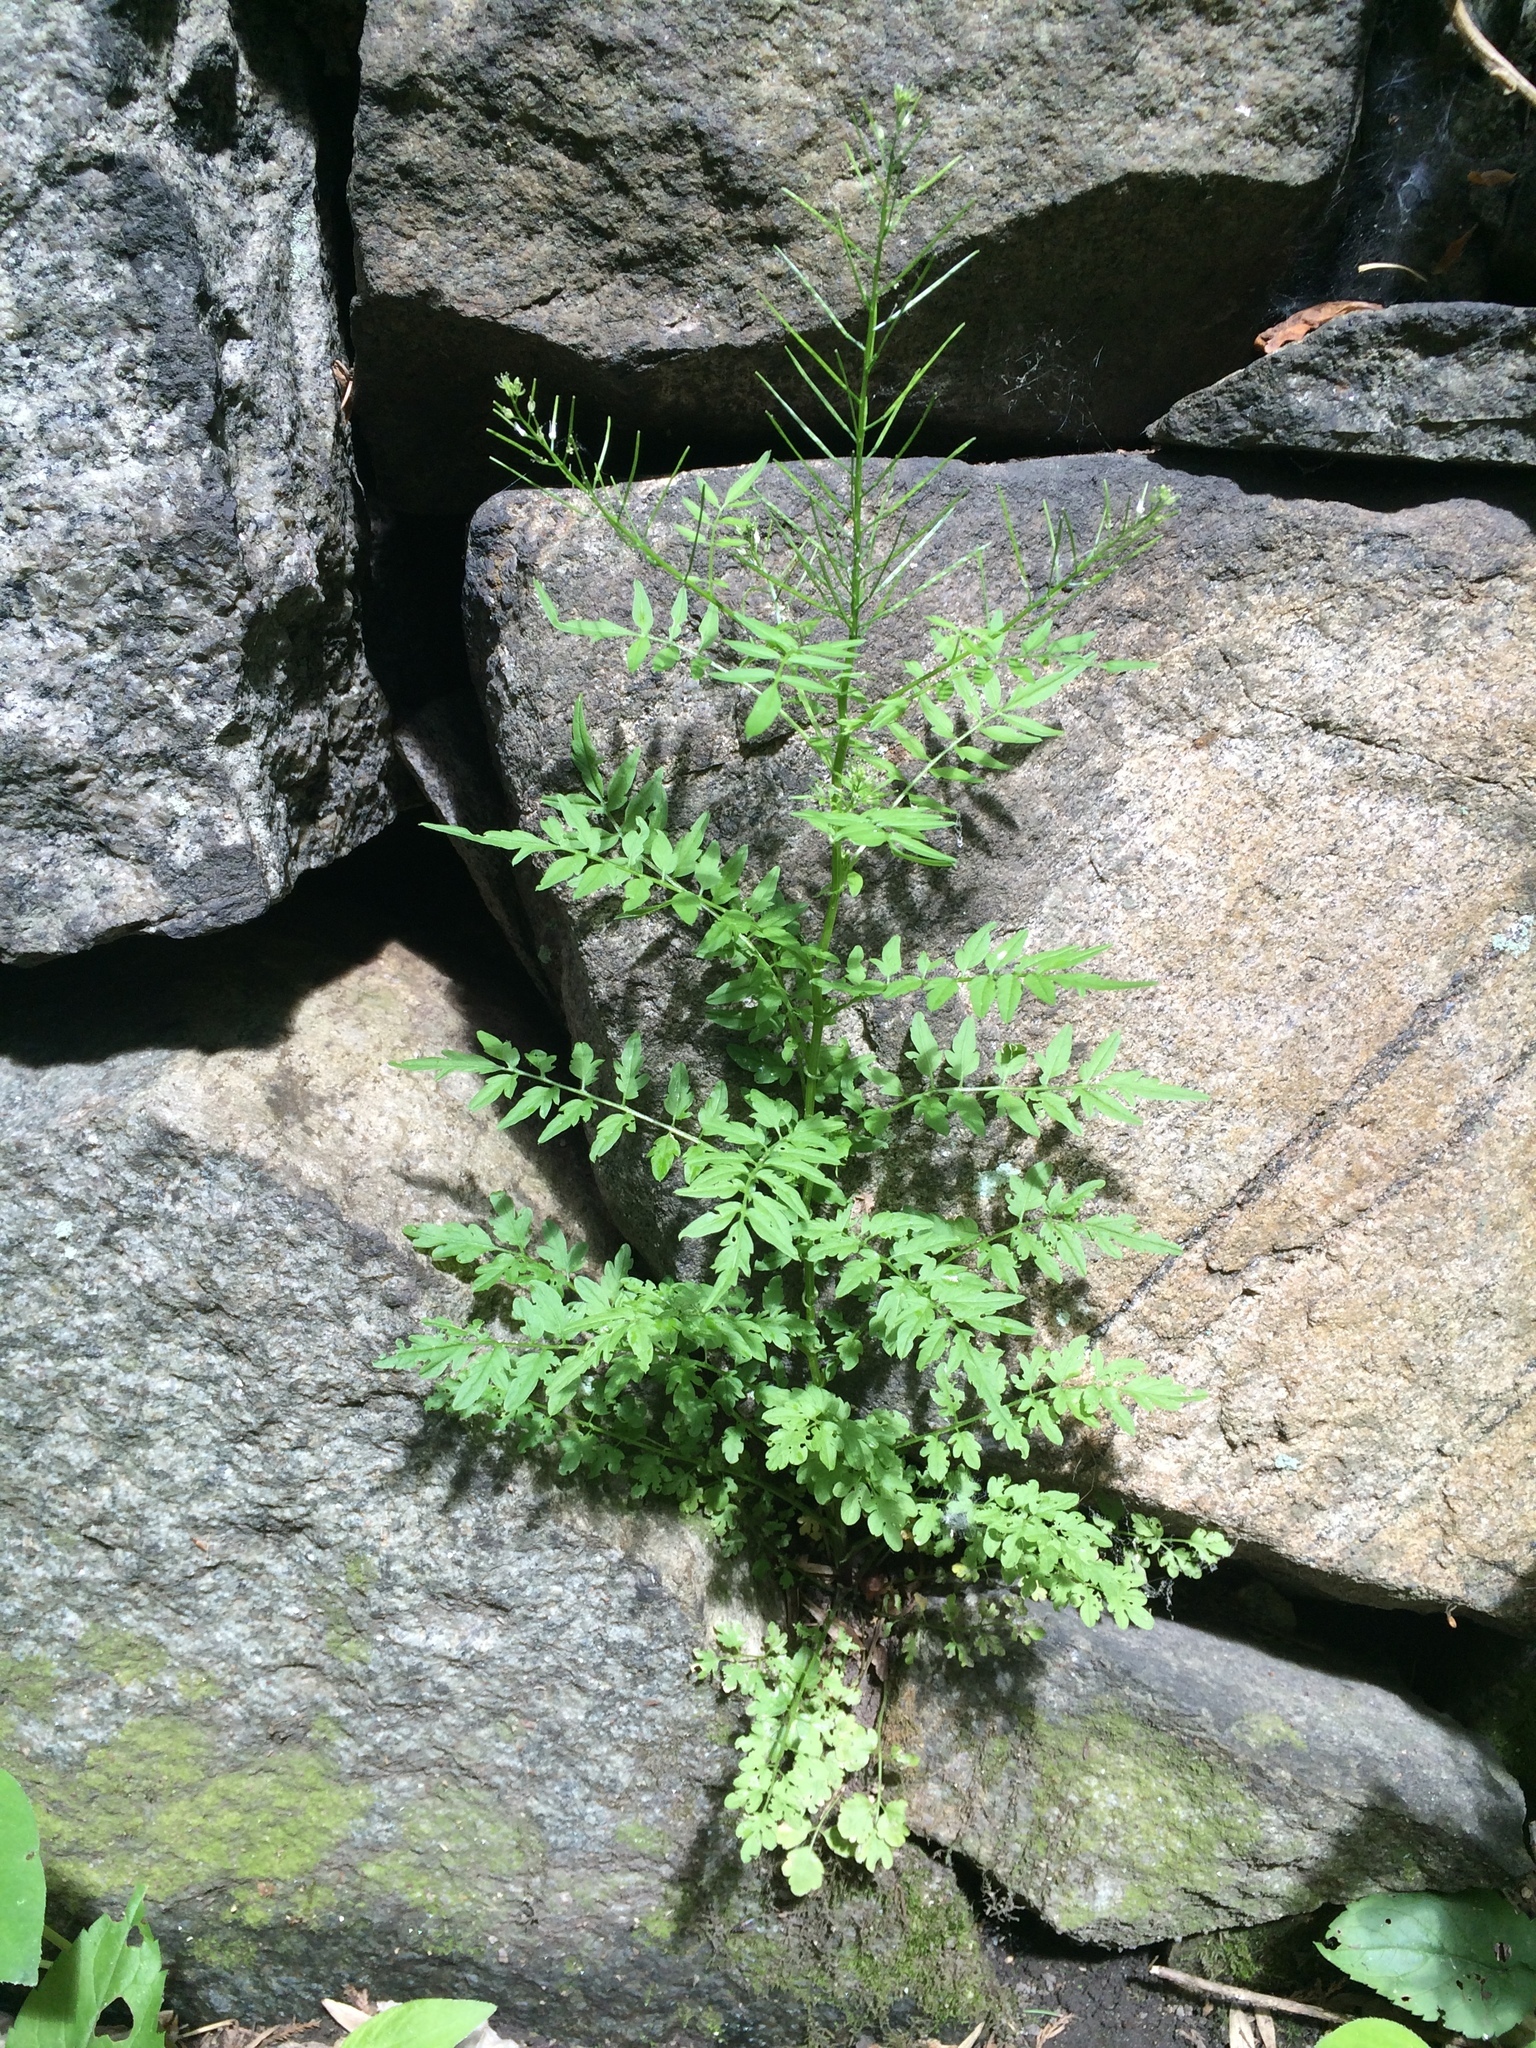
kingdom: Plantae
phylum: Tracheophyta
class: Magnoliopsida
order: Brassicales
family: Brassicaceae
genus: Cardamine
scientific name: Cardamine impatiens
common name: Narrow-leaved bitter-cress
